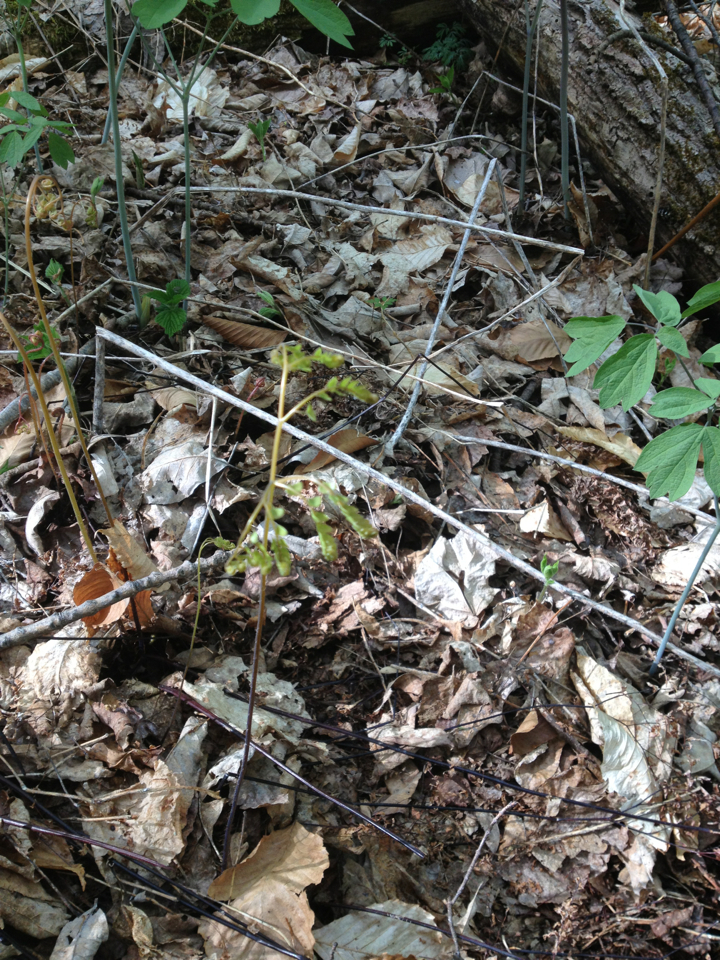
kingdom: Plantae
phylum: Tracheophyta
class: Polypodiopsida
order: Polypodiales
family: Pteridaceae
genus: Adiantum
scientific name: Adiantum pedatum
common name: Five-finger fern
